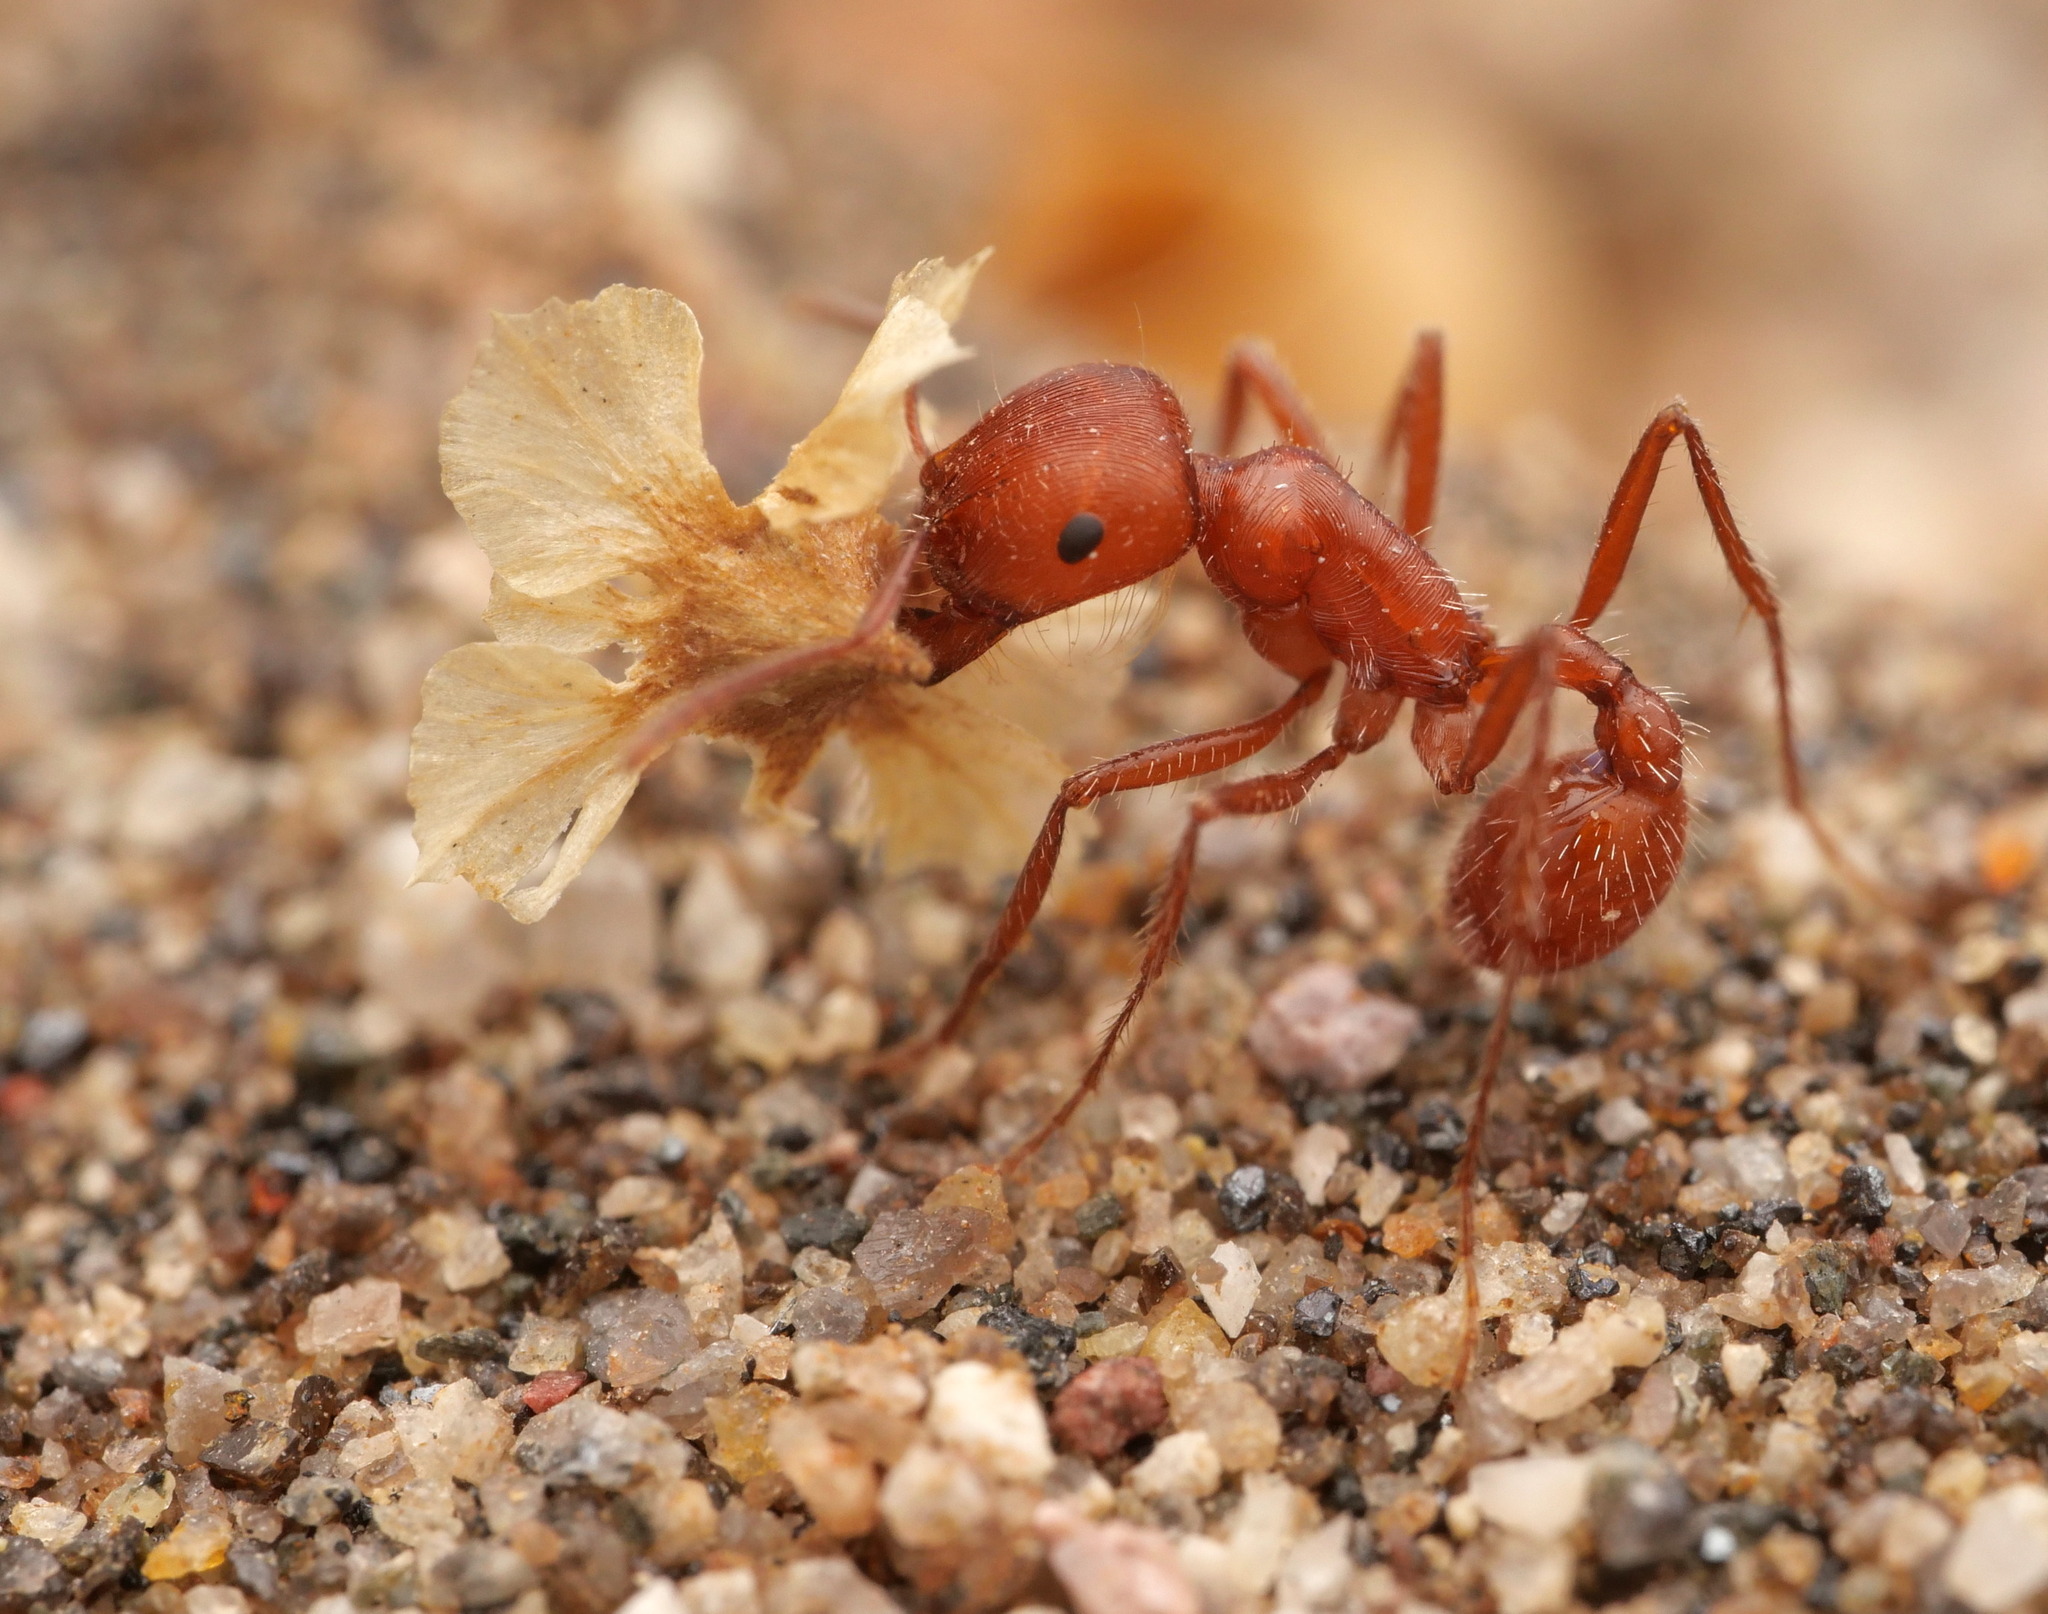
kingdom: Animalia
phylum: Arthropoda
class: Insecta
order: Hymenoptera
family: Formicidae
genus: Pogonomyrmex
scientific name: Pogonomyrmex californicus
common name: California harvester ant
